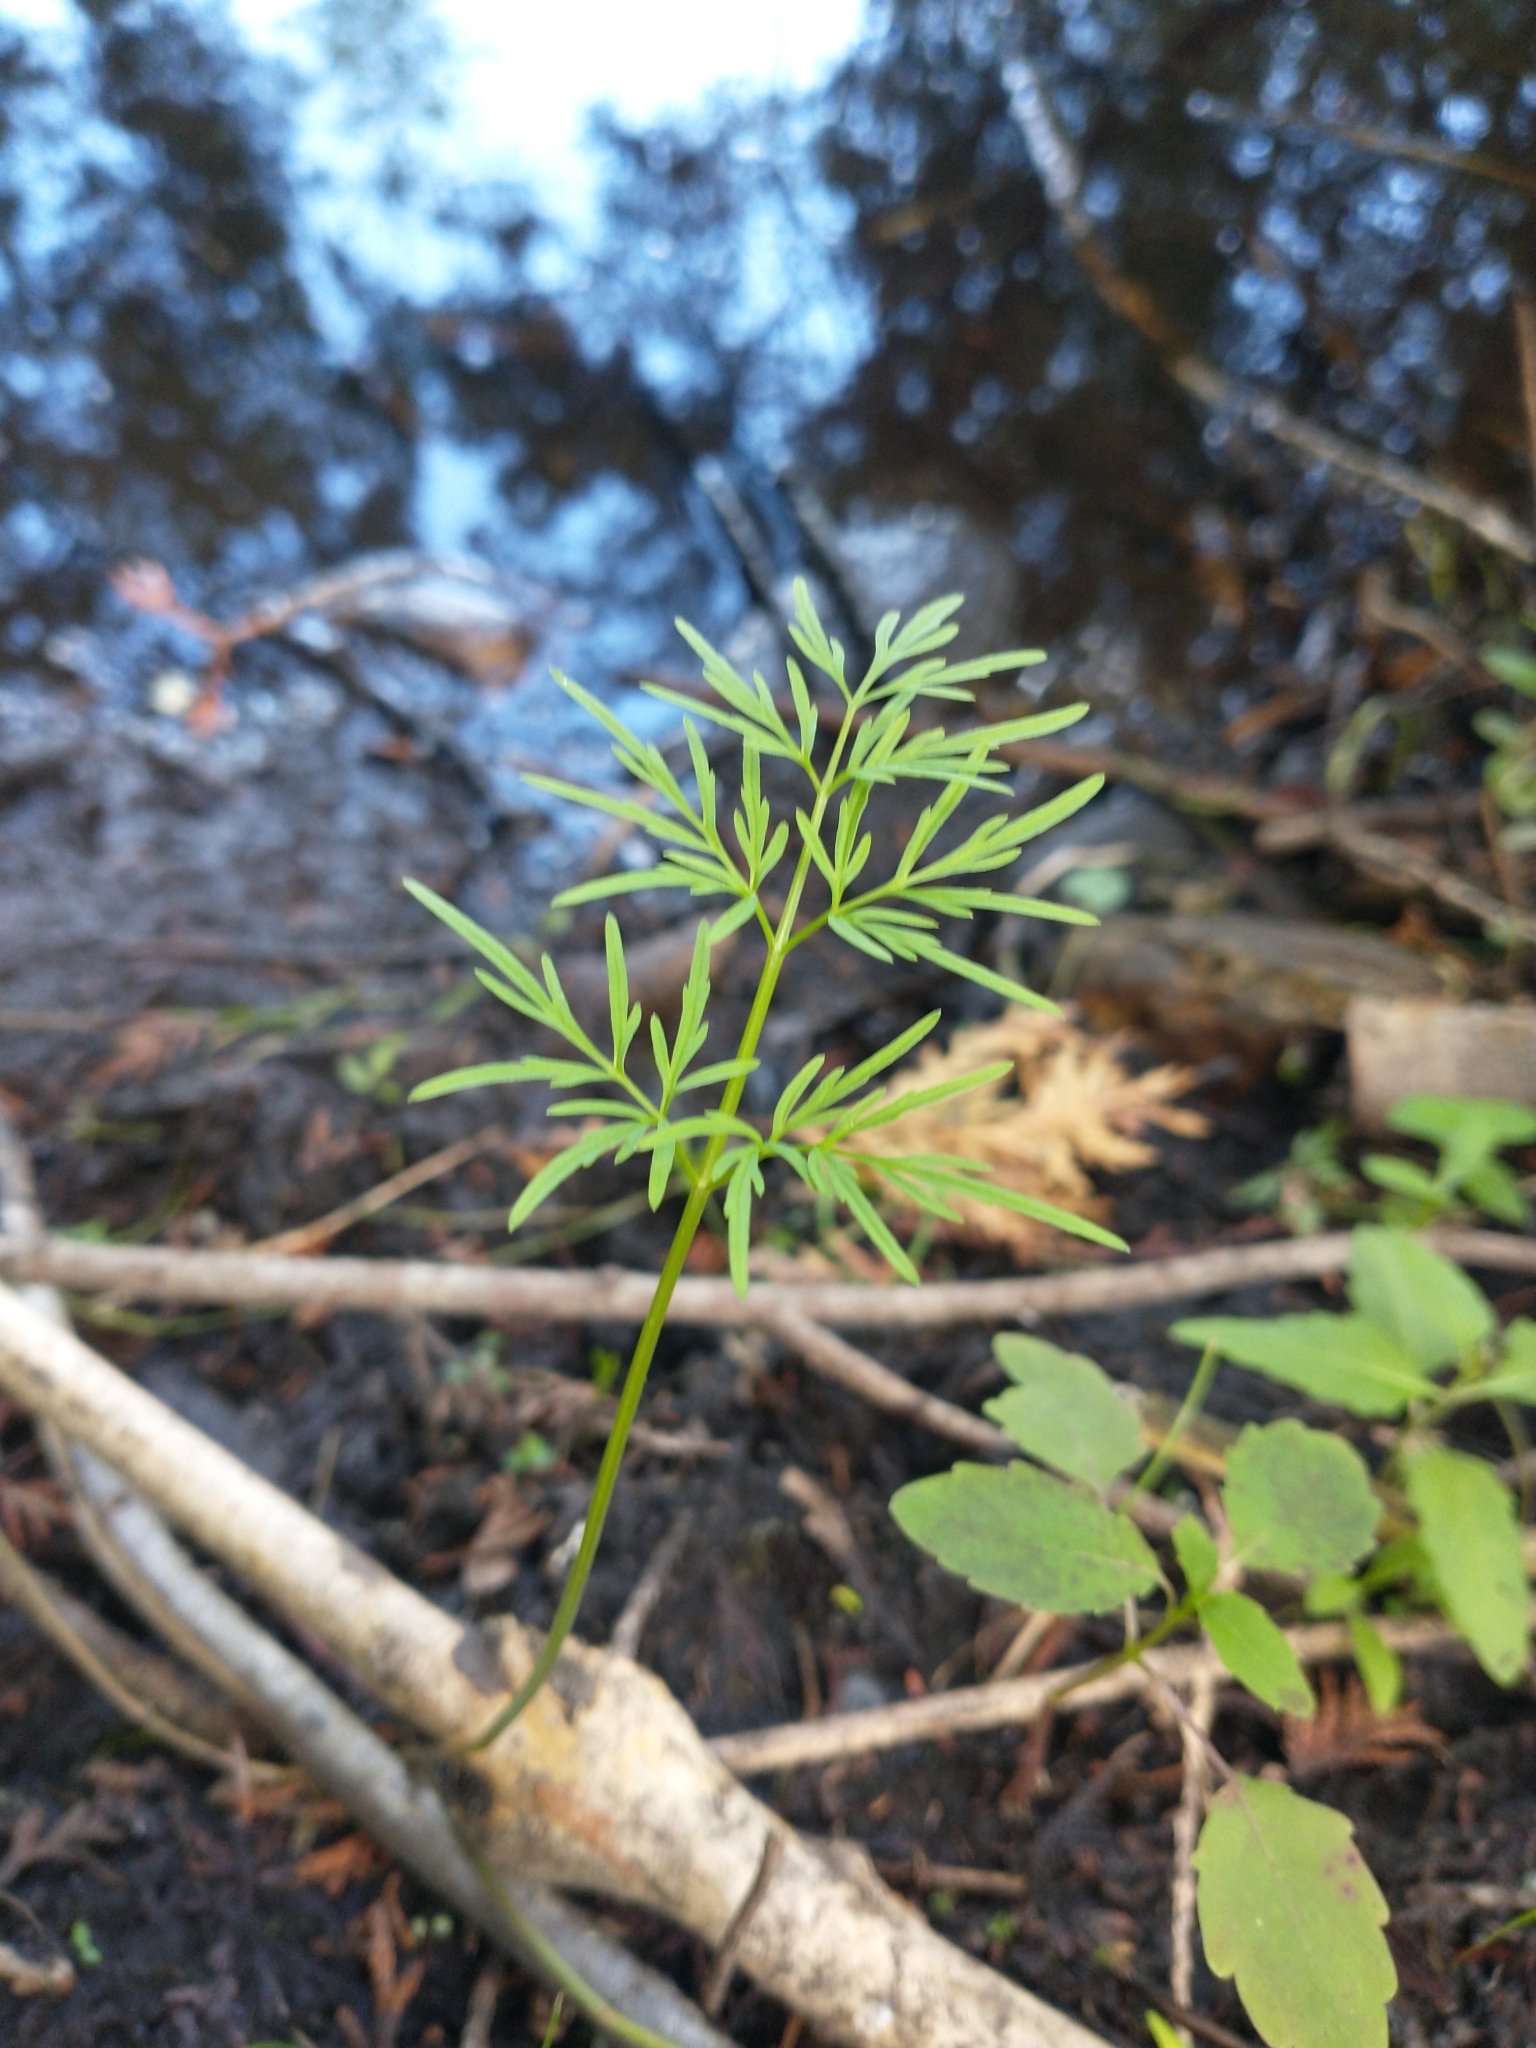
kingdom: Plantae
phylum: Tracheophyta
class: Magnoliopsida
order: Apiales
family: Apiaceae
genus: Cicuta
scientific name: Cicuta bulbifera
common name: Bulb-bearing water-hemlock
